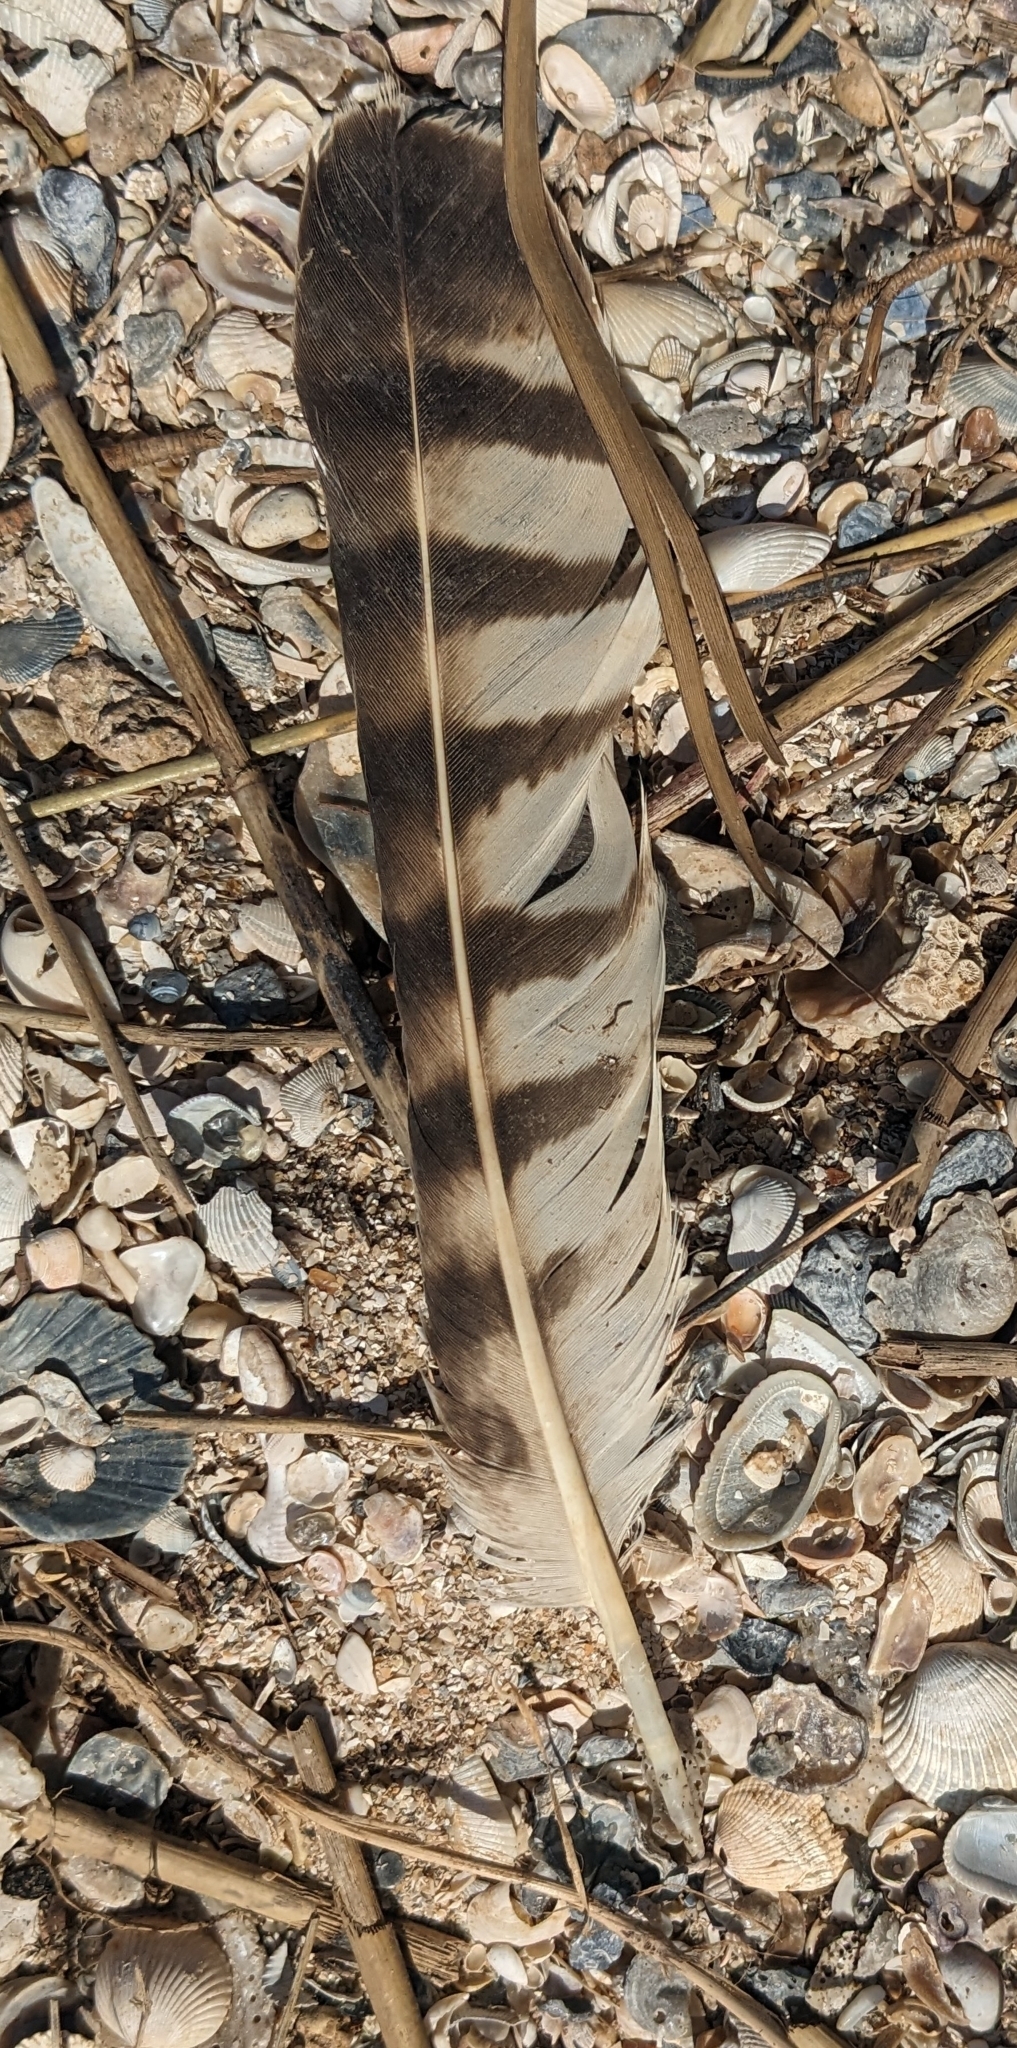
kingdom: Animalia
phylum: Chordata
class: Aves
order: Accipitriformes
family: Pandionidae
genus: Pandion
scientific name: Pandion haliaetus
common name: Osprey
